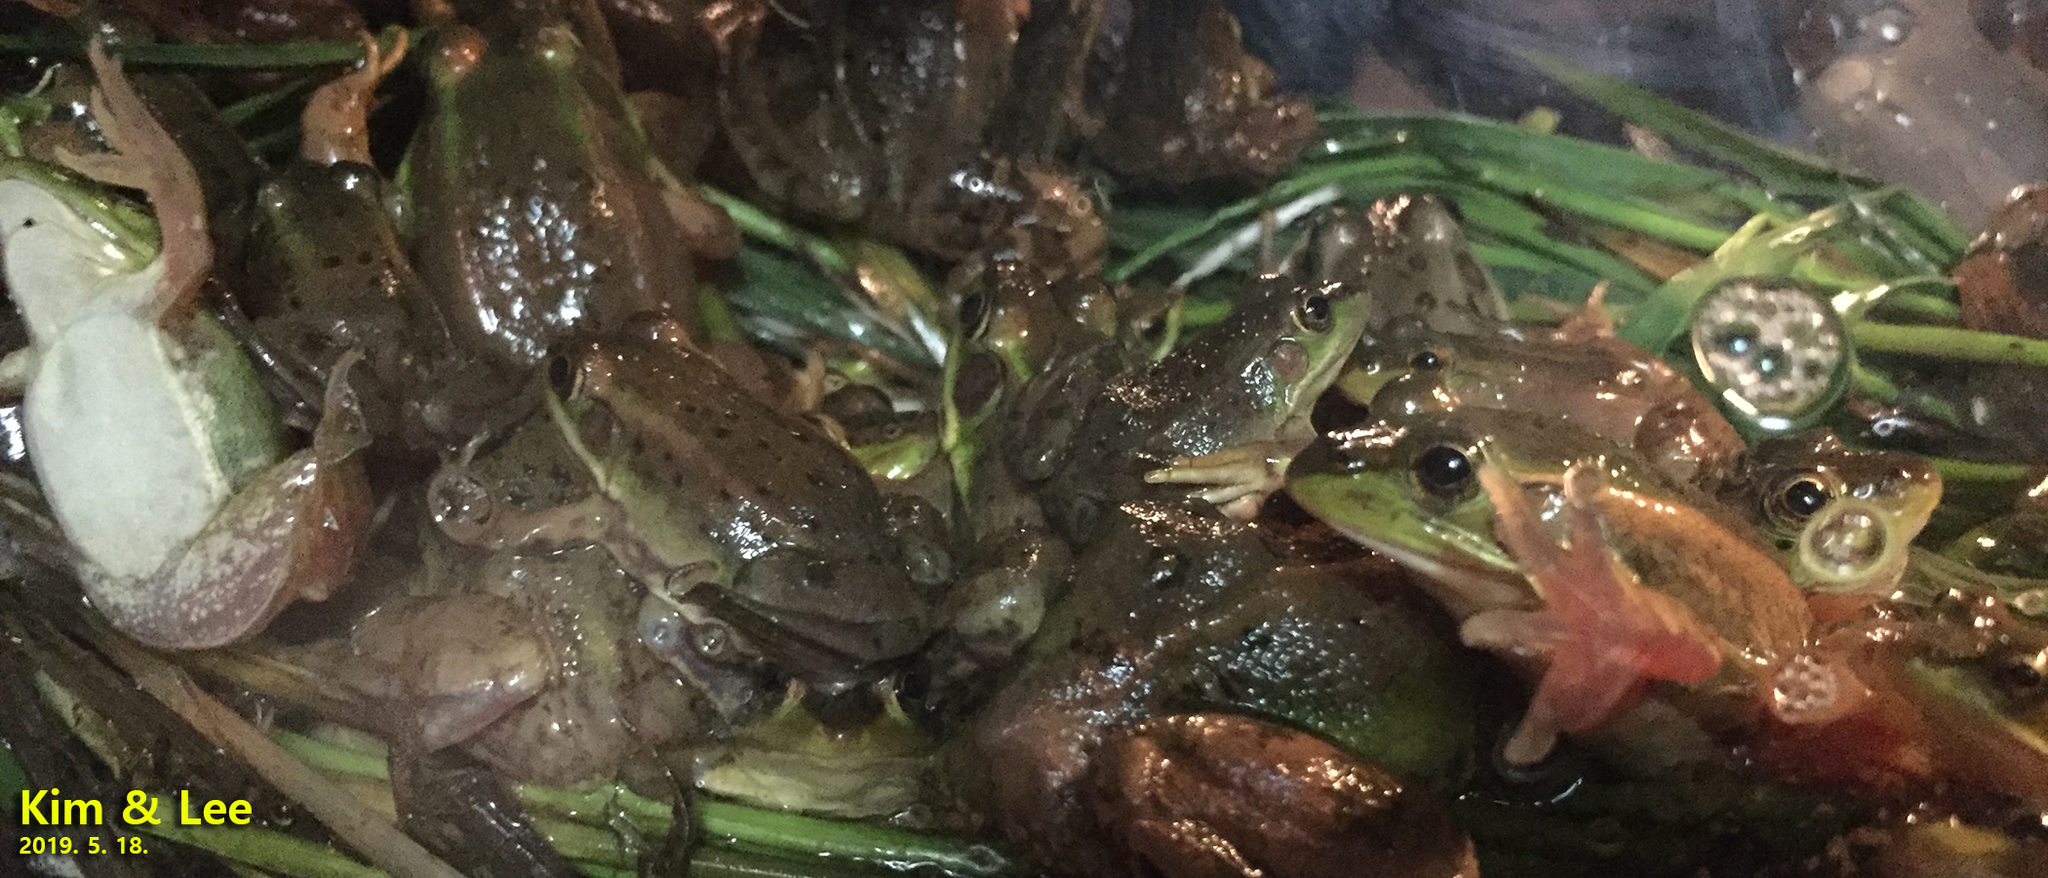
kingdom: Animalia
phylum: Chordata
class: Amphibia
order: Anura
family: Ranidae
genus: Pelophylax
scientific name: Pelophylax chosenicus
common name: Gold-spotted pond frog
